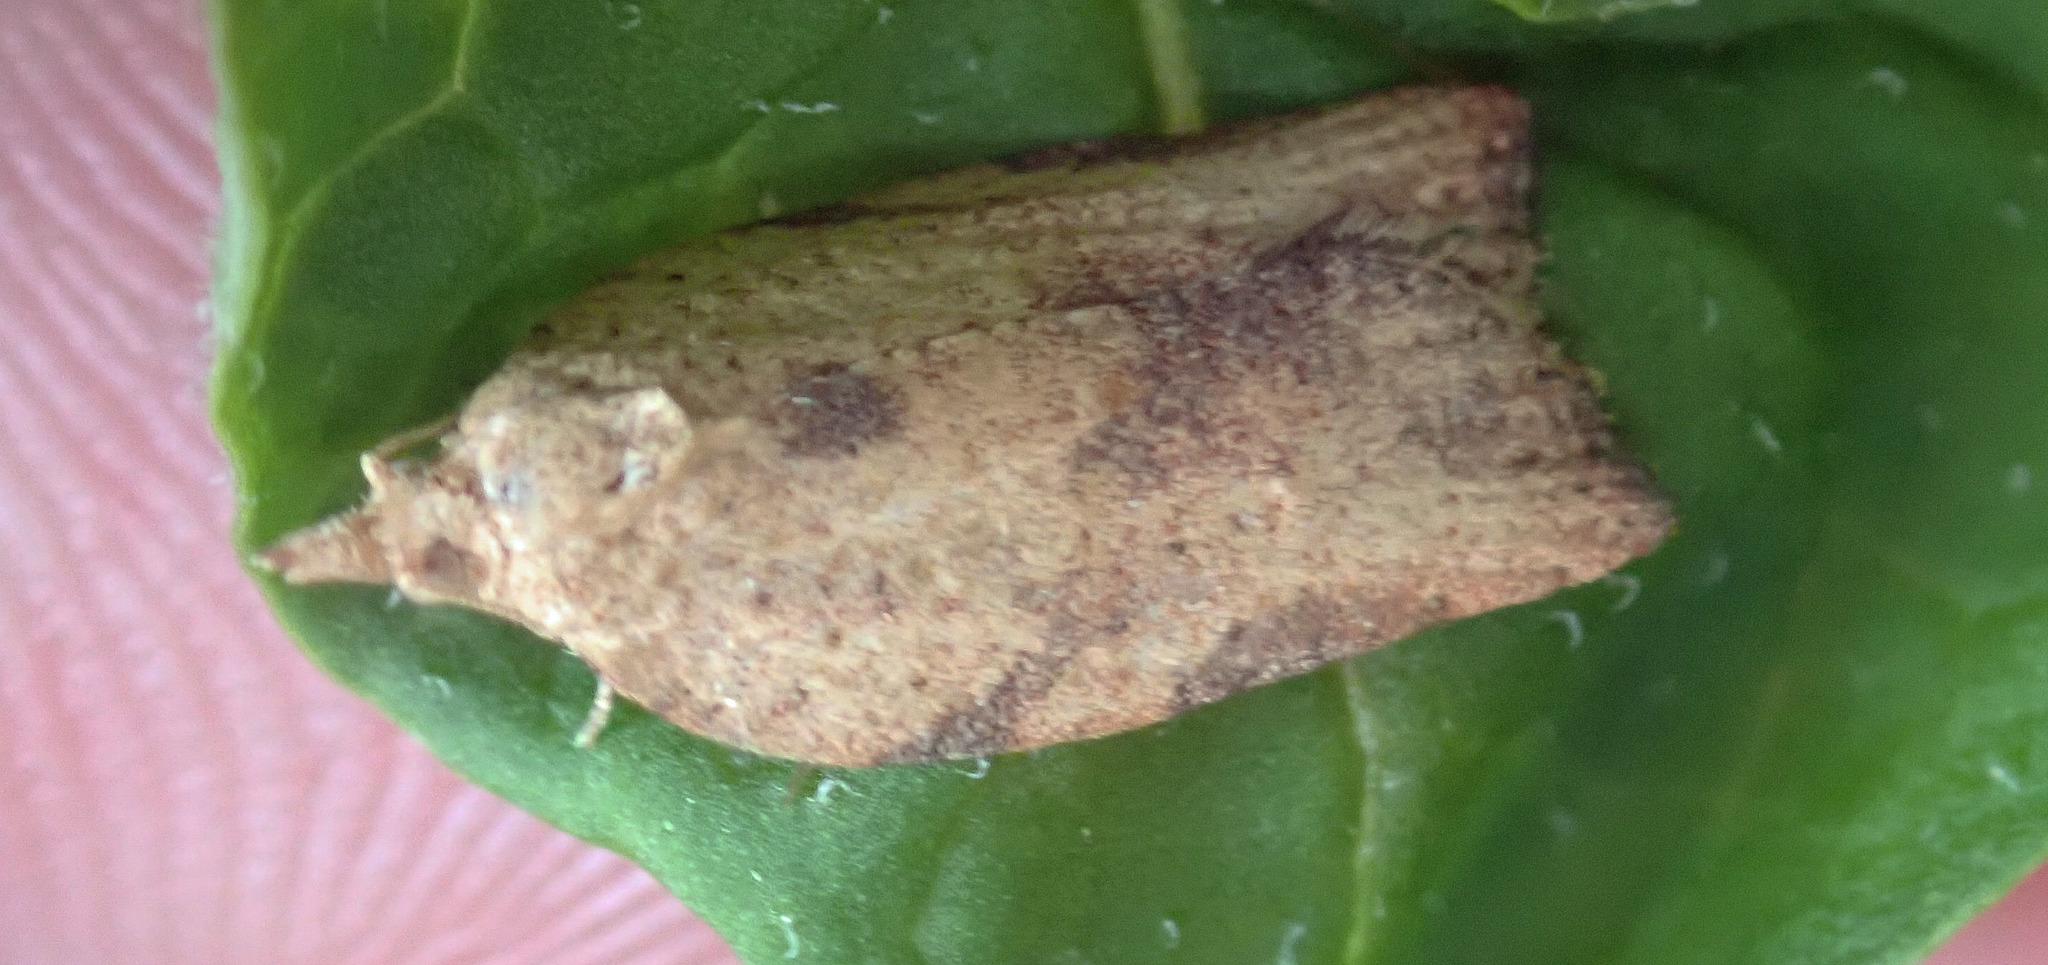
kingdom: Animalia
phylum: Arthropoda
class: Insecta
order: Lepidoptera
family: Tortricidae
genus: Epiphyas
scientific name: Epiphyas postvittana
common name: Light brown apple moth
